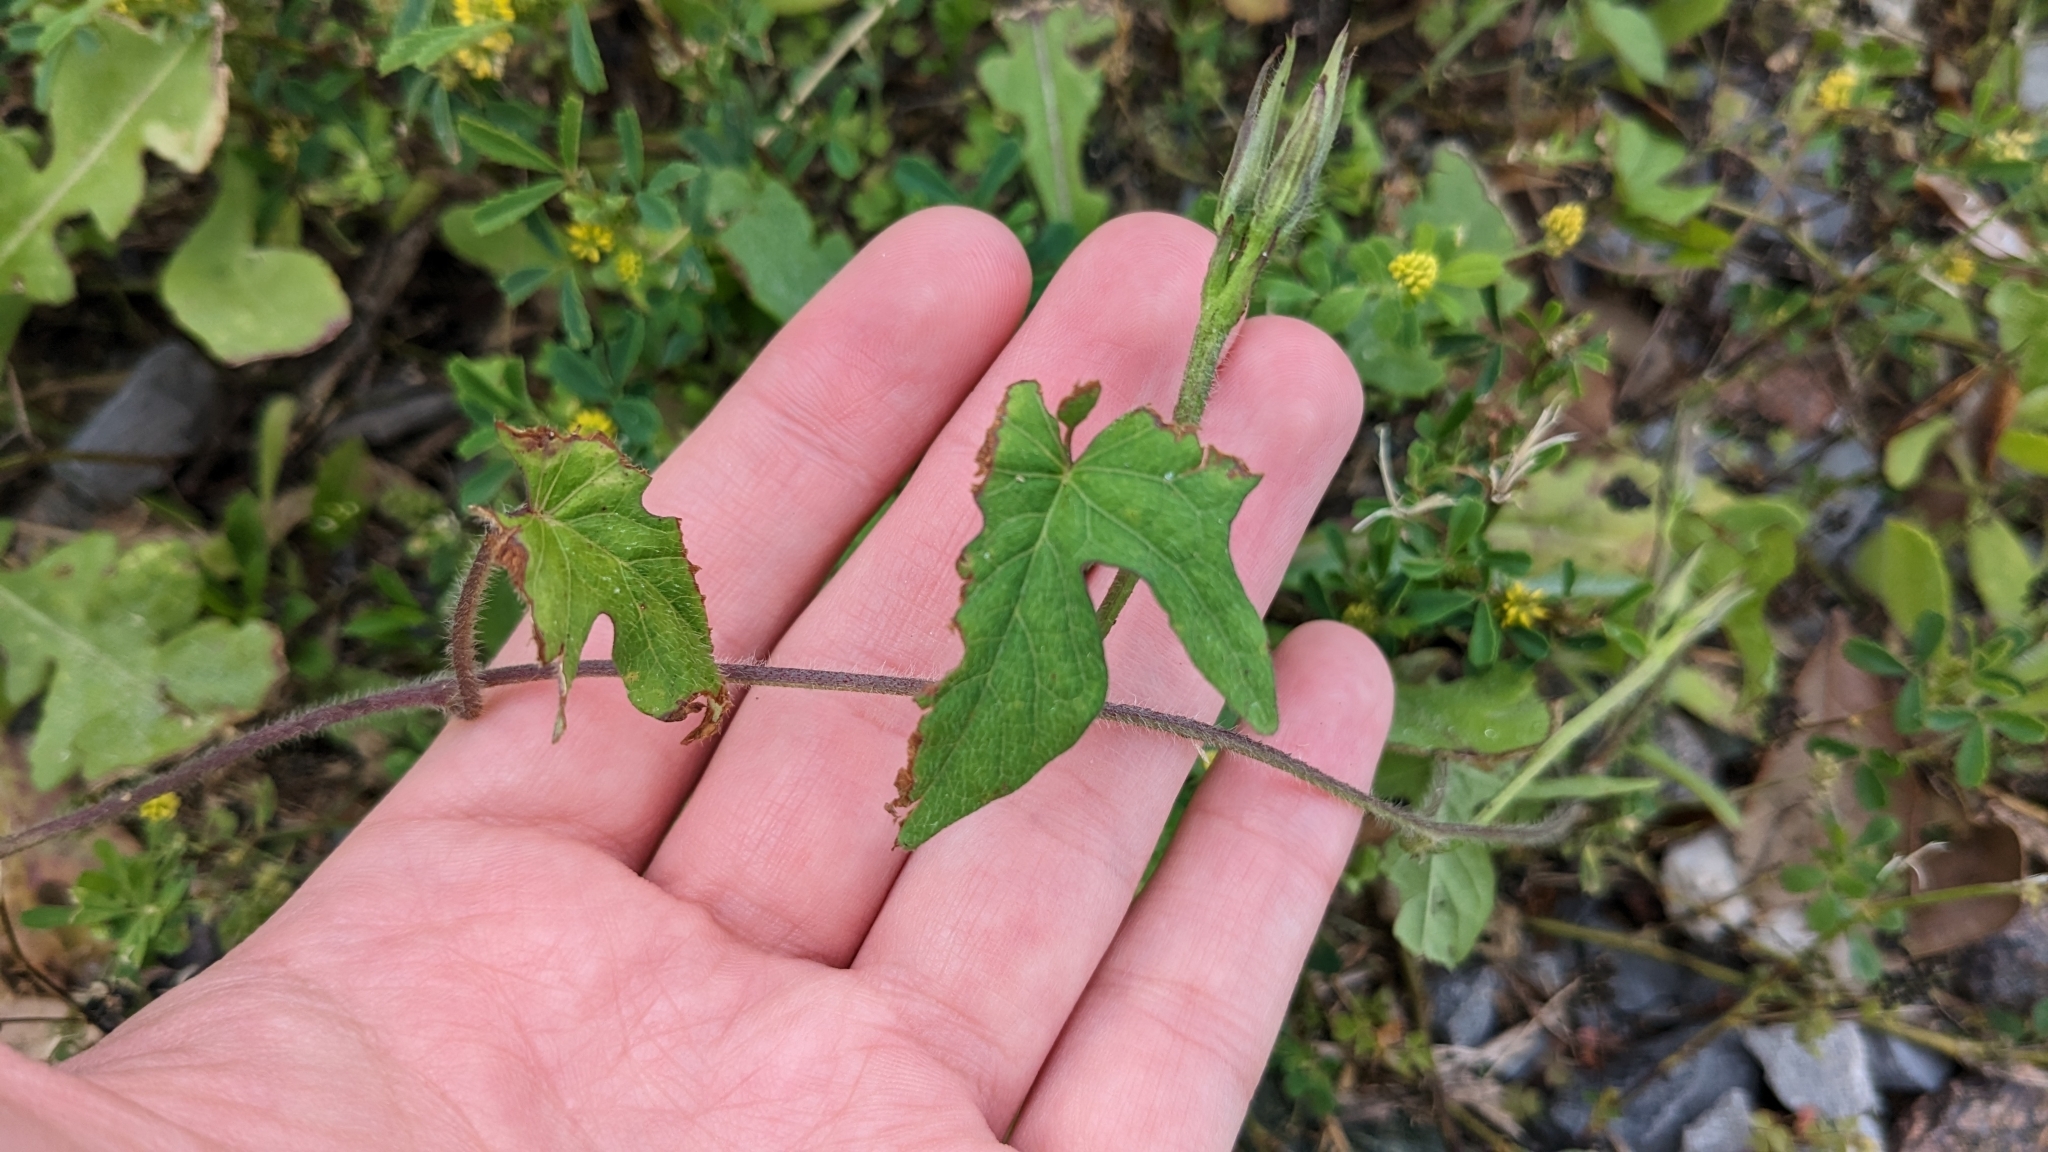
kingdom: Plantae
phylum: Tracheophyta
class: Magnoliopsida
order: Solanales
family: Convolvulaceae
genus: Ipomoea
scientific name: Ipomoea cordatotriloba
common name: Cotton morning glory
